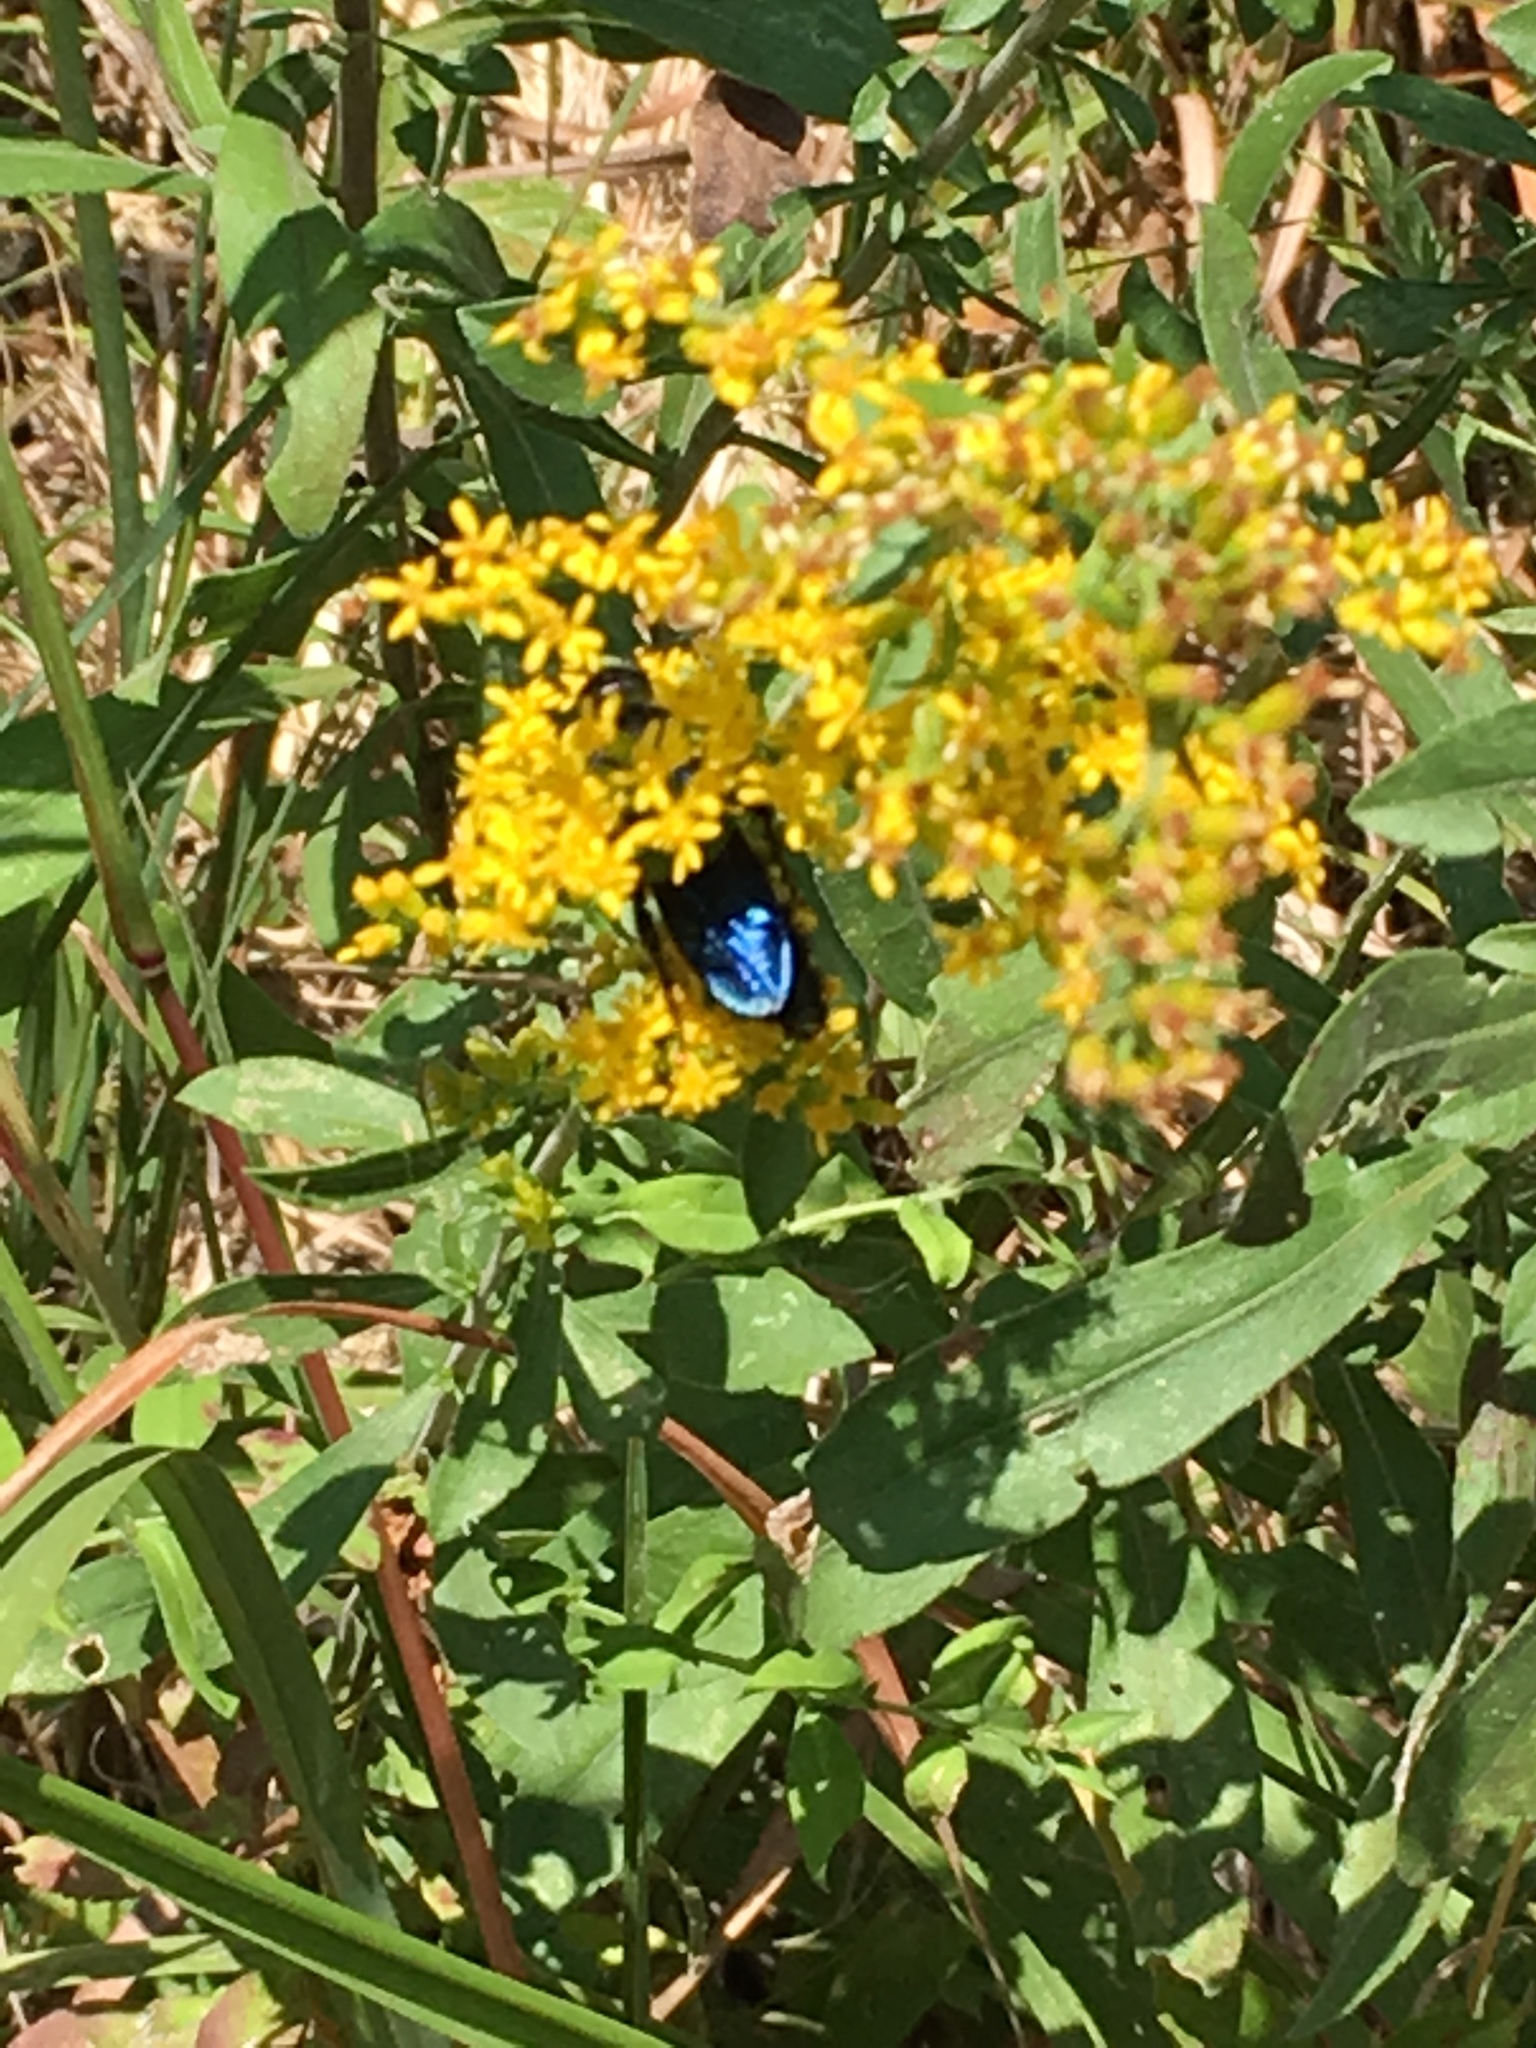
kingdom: Animalia
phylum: Arthropoda
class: Insecta
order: Hymenoptera
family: Scoliidae
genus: Scolia
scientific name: Scolia bicincta
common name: Double-banded scoliid wasp
